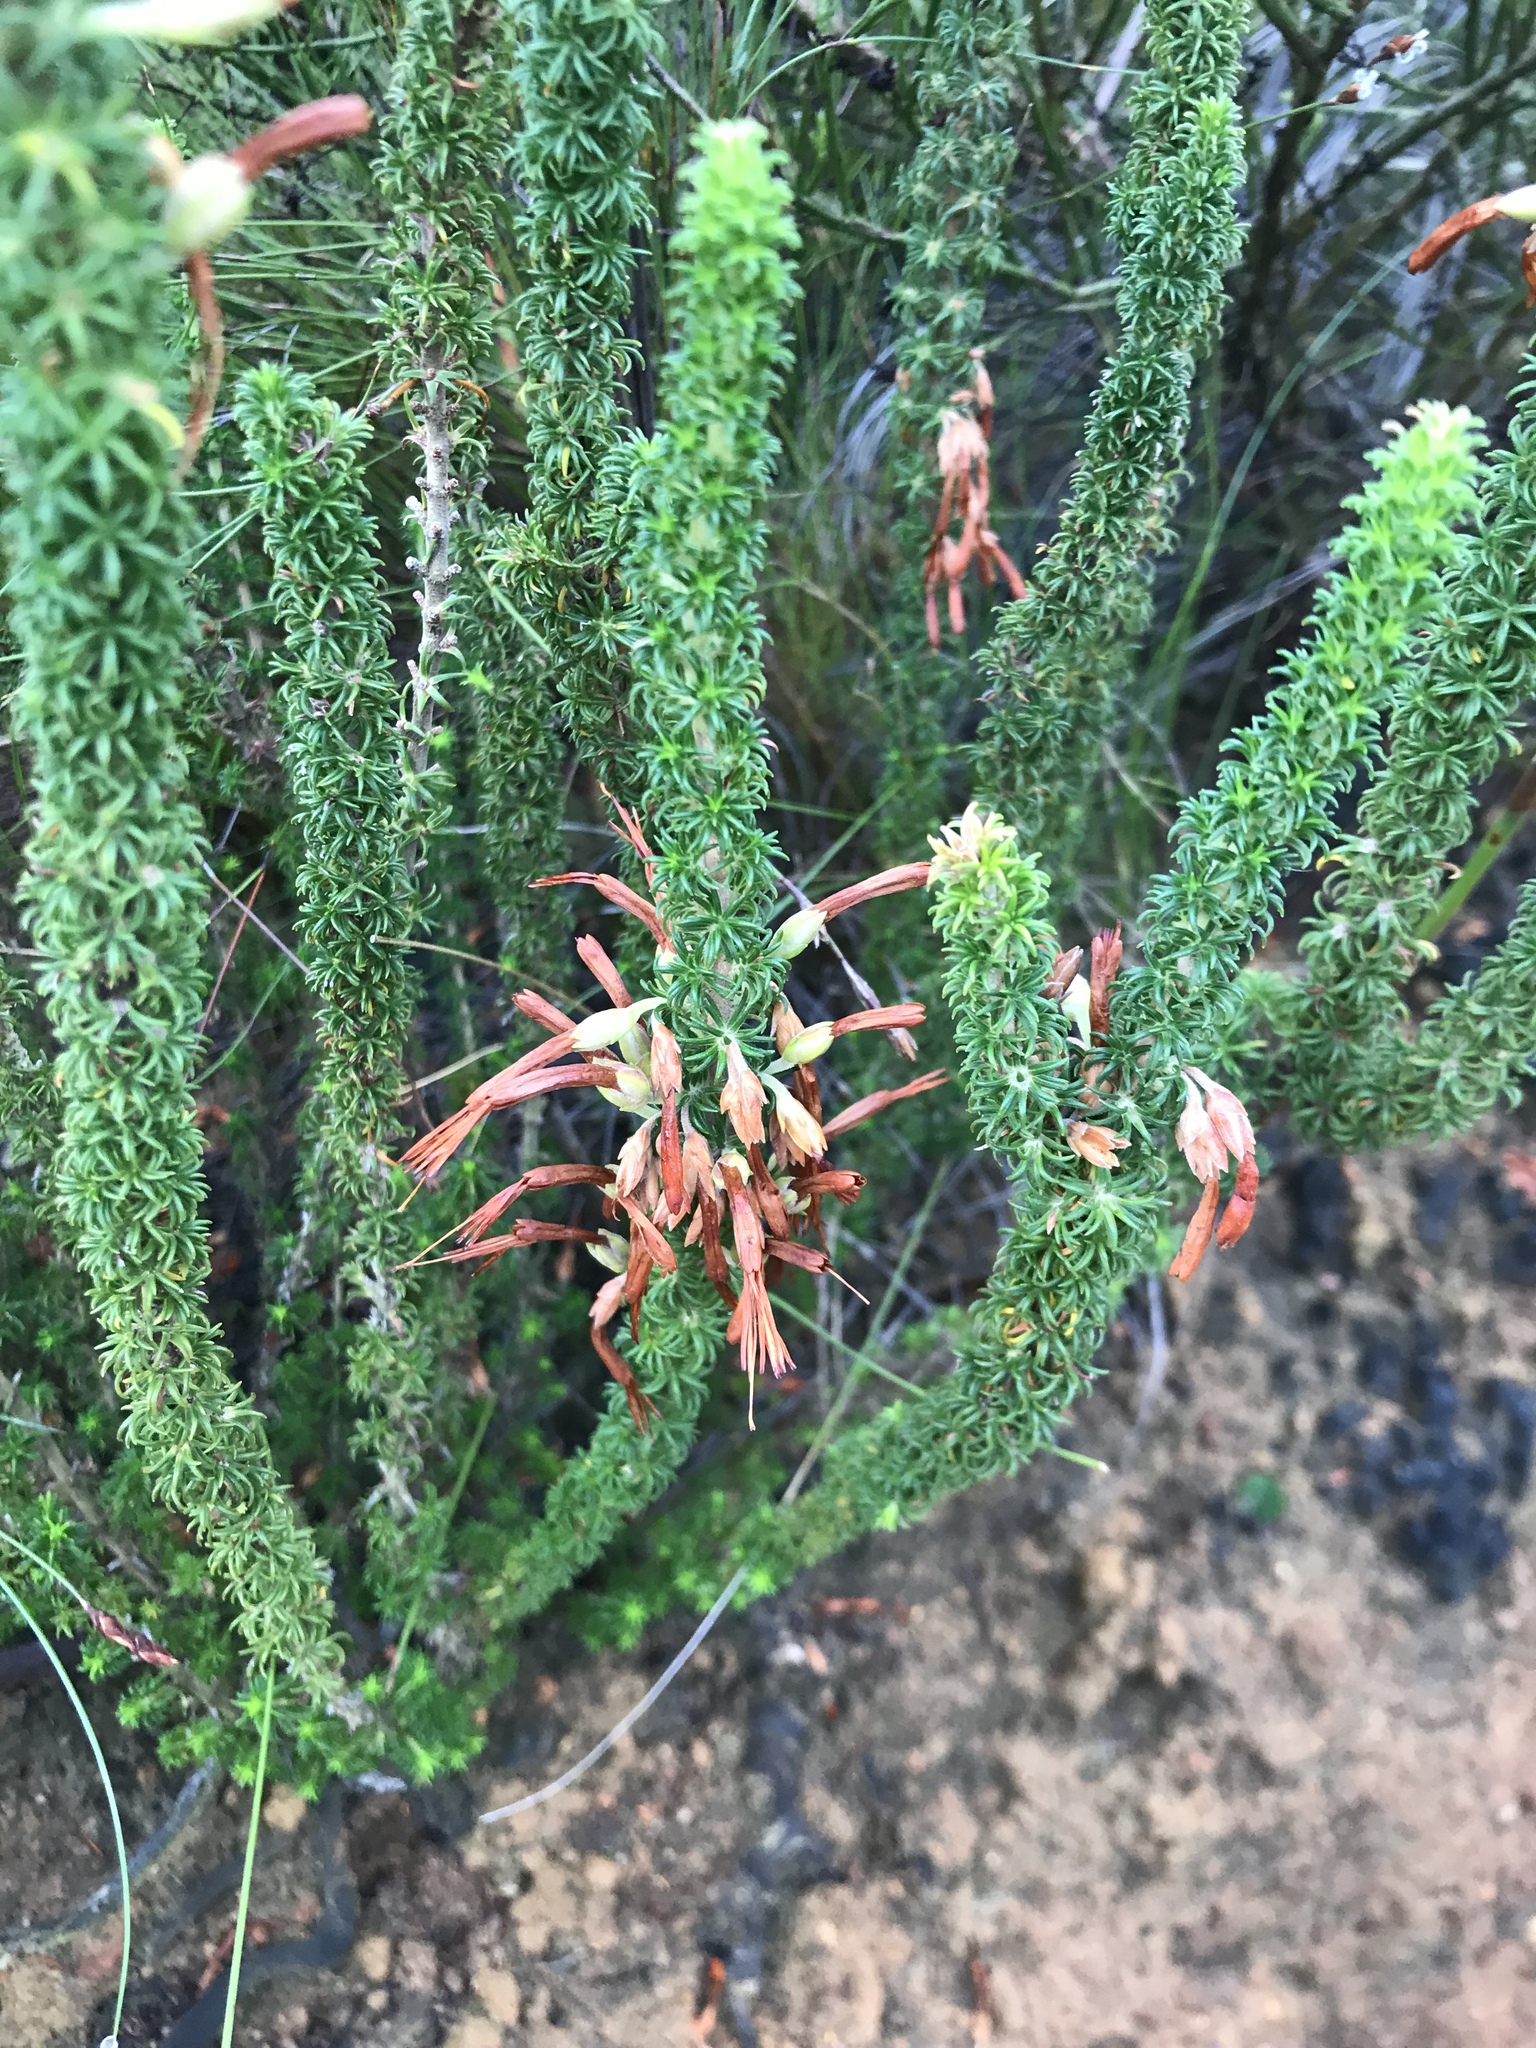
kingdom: Plantae
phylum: Tracheophyta
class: Magnoliopsida
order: Ericales
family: Ericaceae
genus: Erica
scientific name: Erica coccinea
